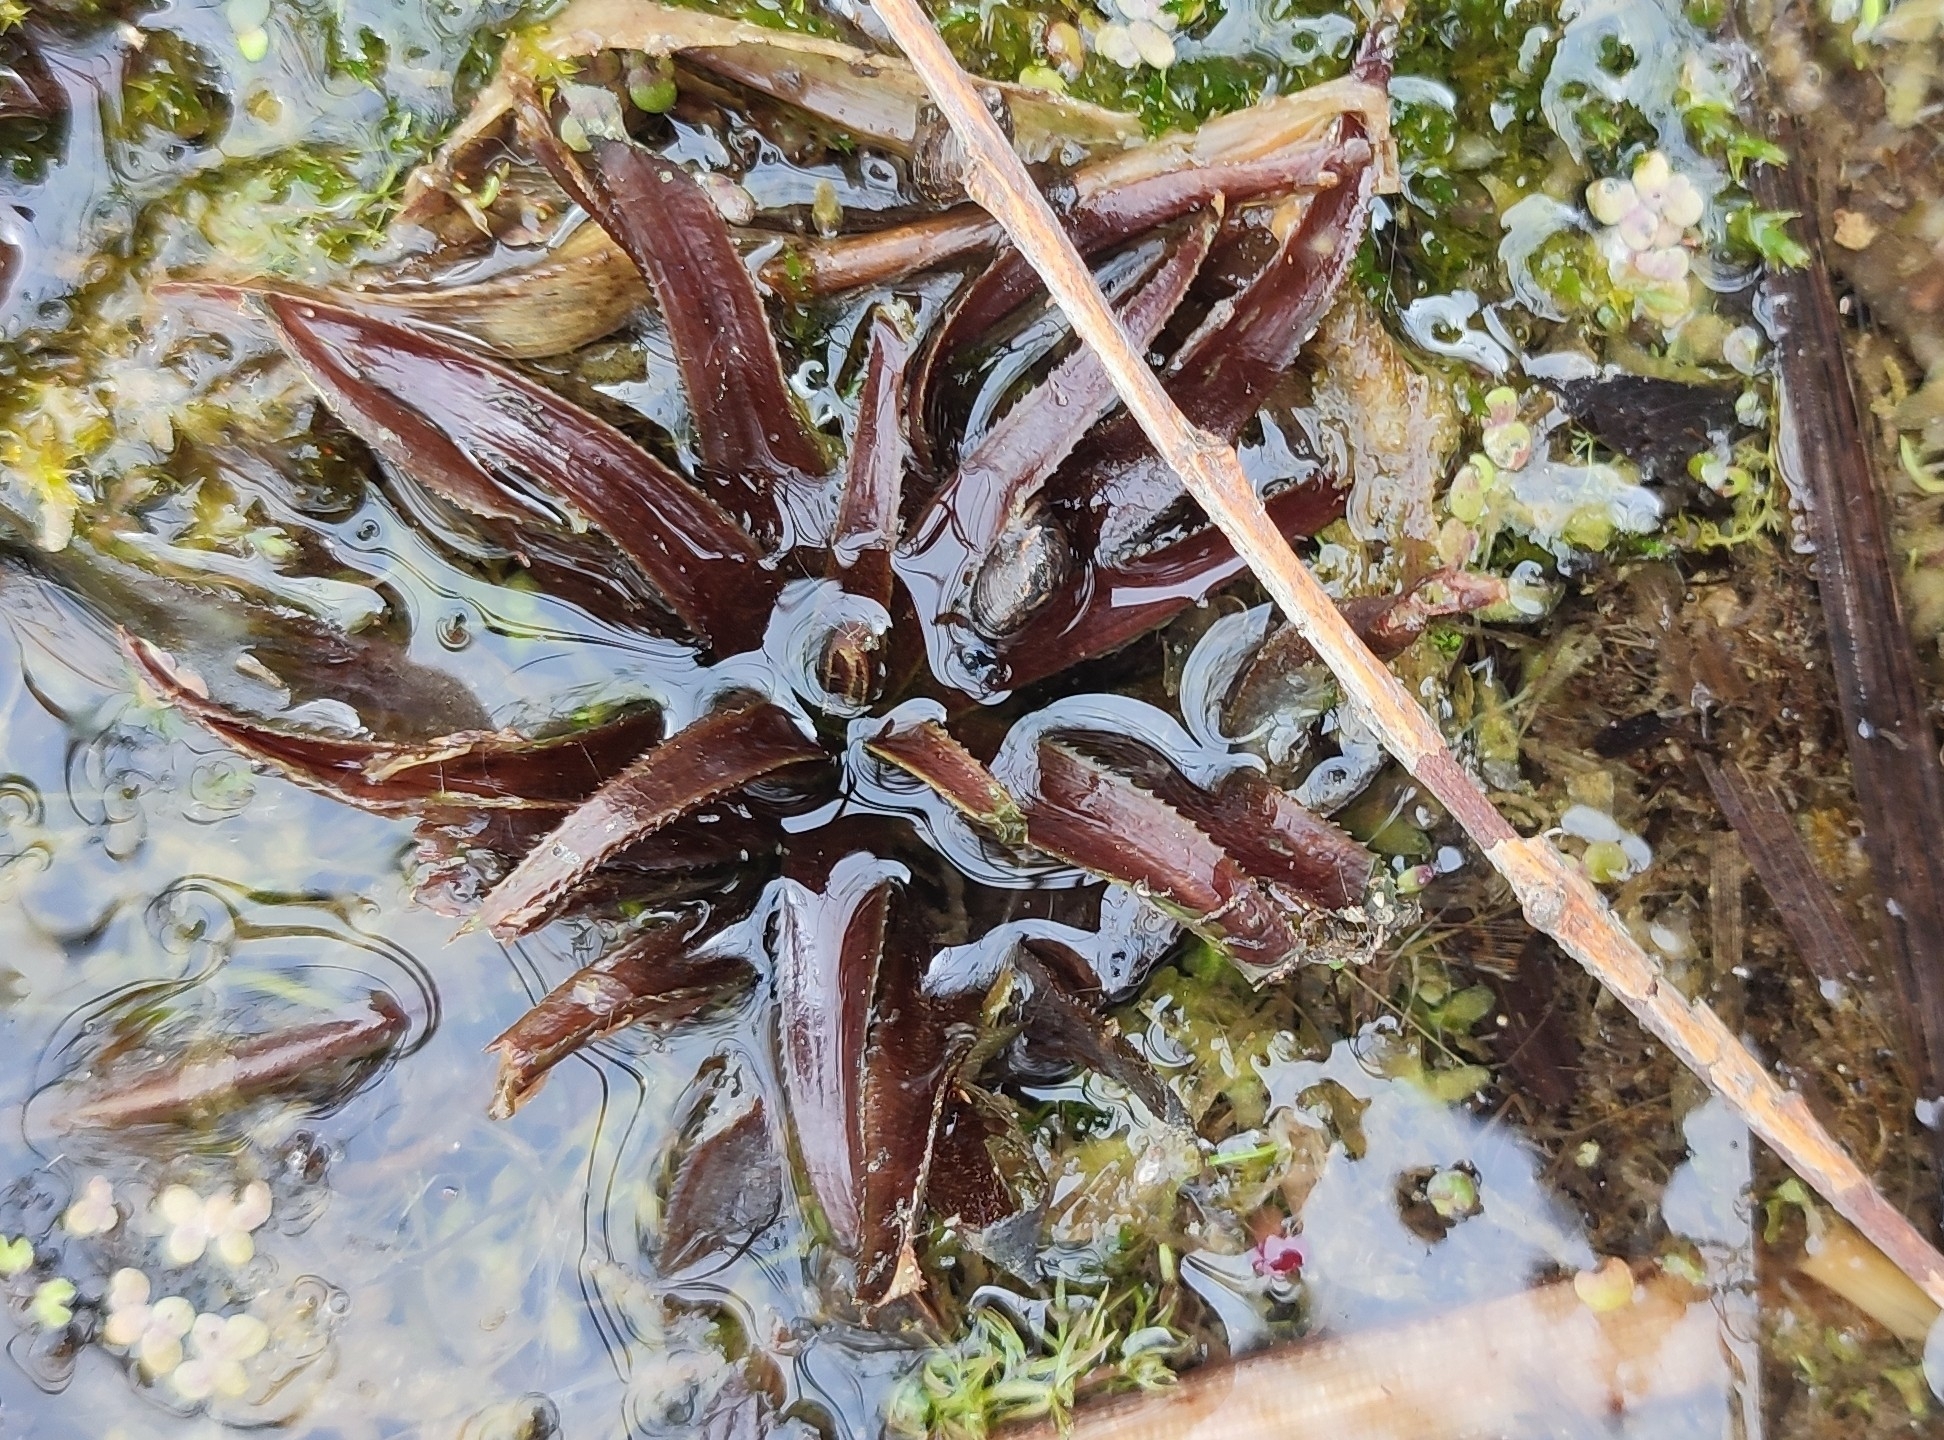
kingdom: Plantae
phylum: Tracheophyta
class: Liliopsida
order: Alismatales
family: Hydrocharitaceae
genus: Stratiotes
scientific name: Stratiotes aloides
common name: Water-soldier
